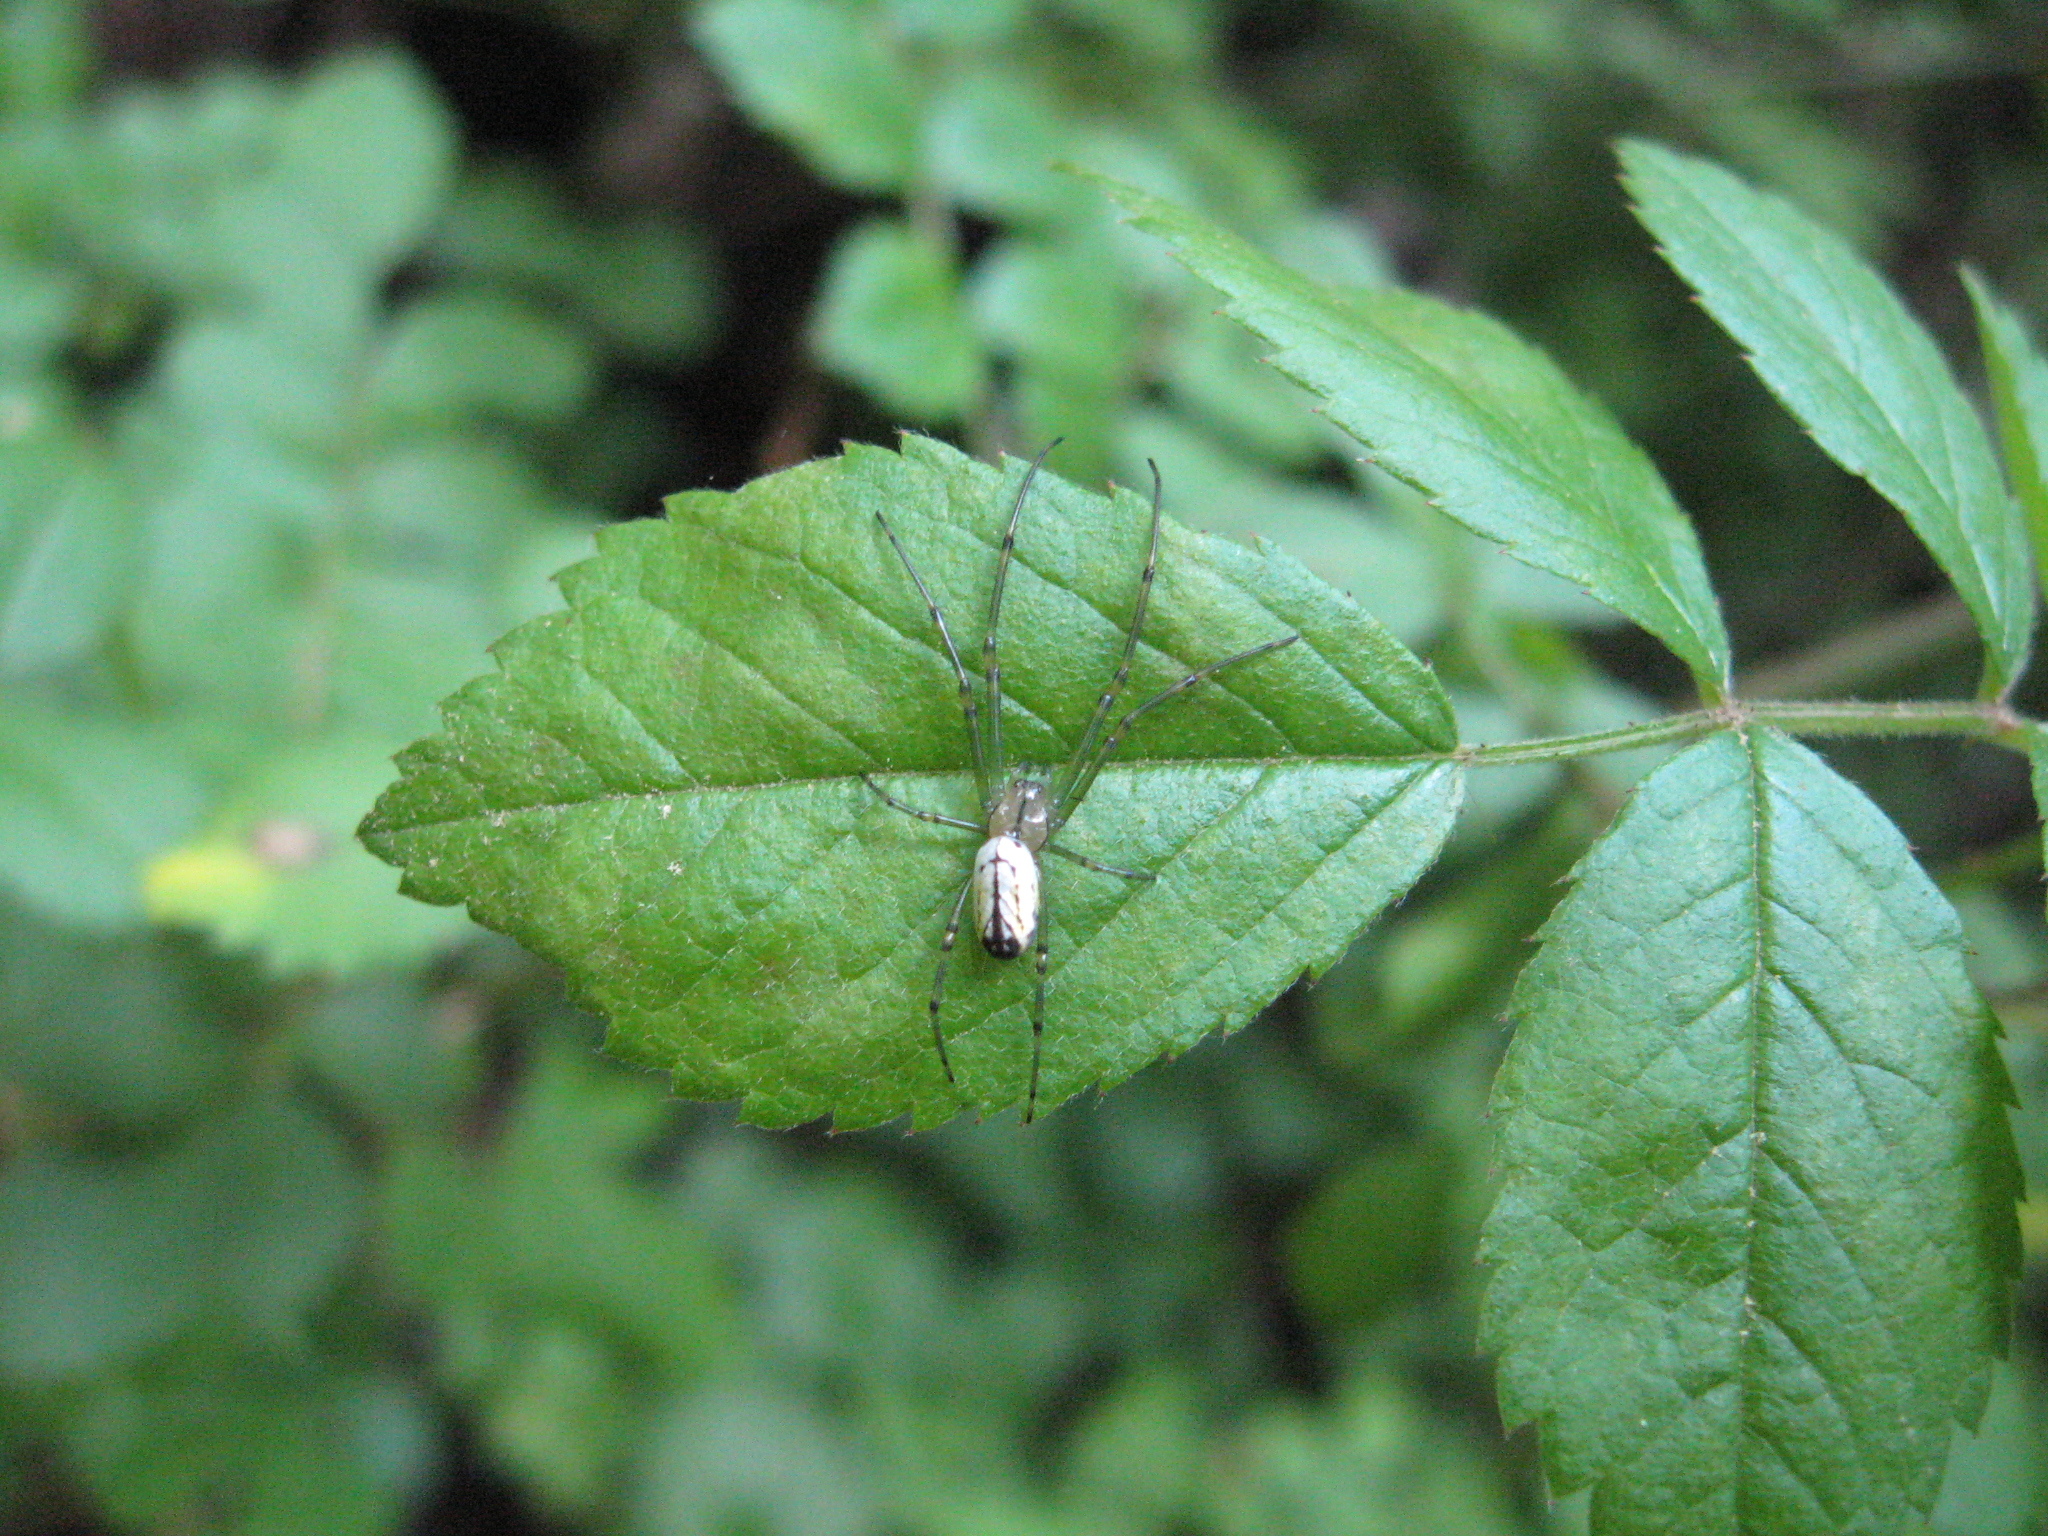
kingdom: Animalia
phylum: Arthropoda
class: Arachnida
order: Araneae
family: Tetragnathidae
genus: Leucauge
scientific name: Leucauge venusta
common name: Longjawed orb weavers
